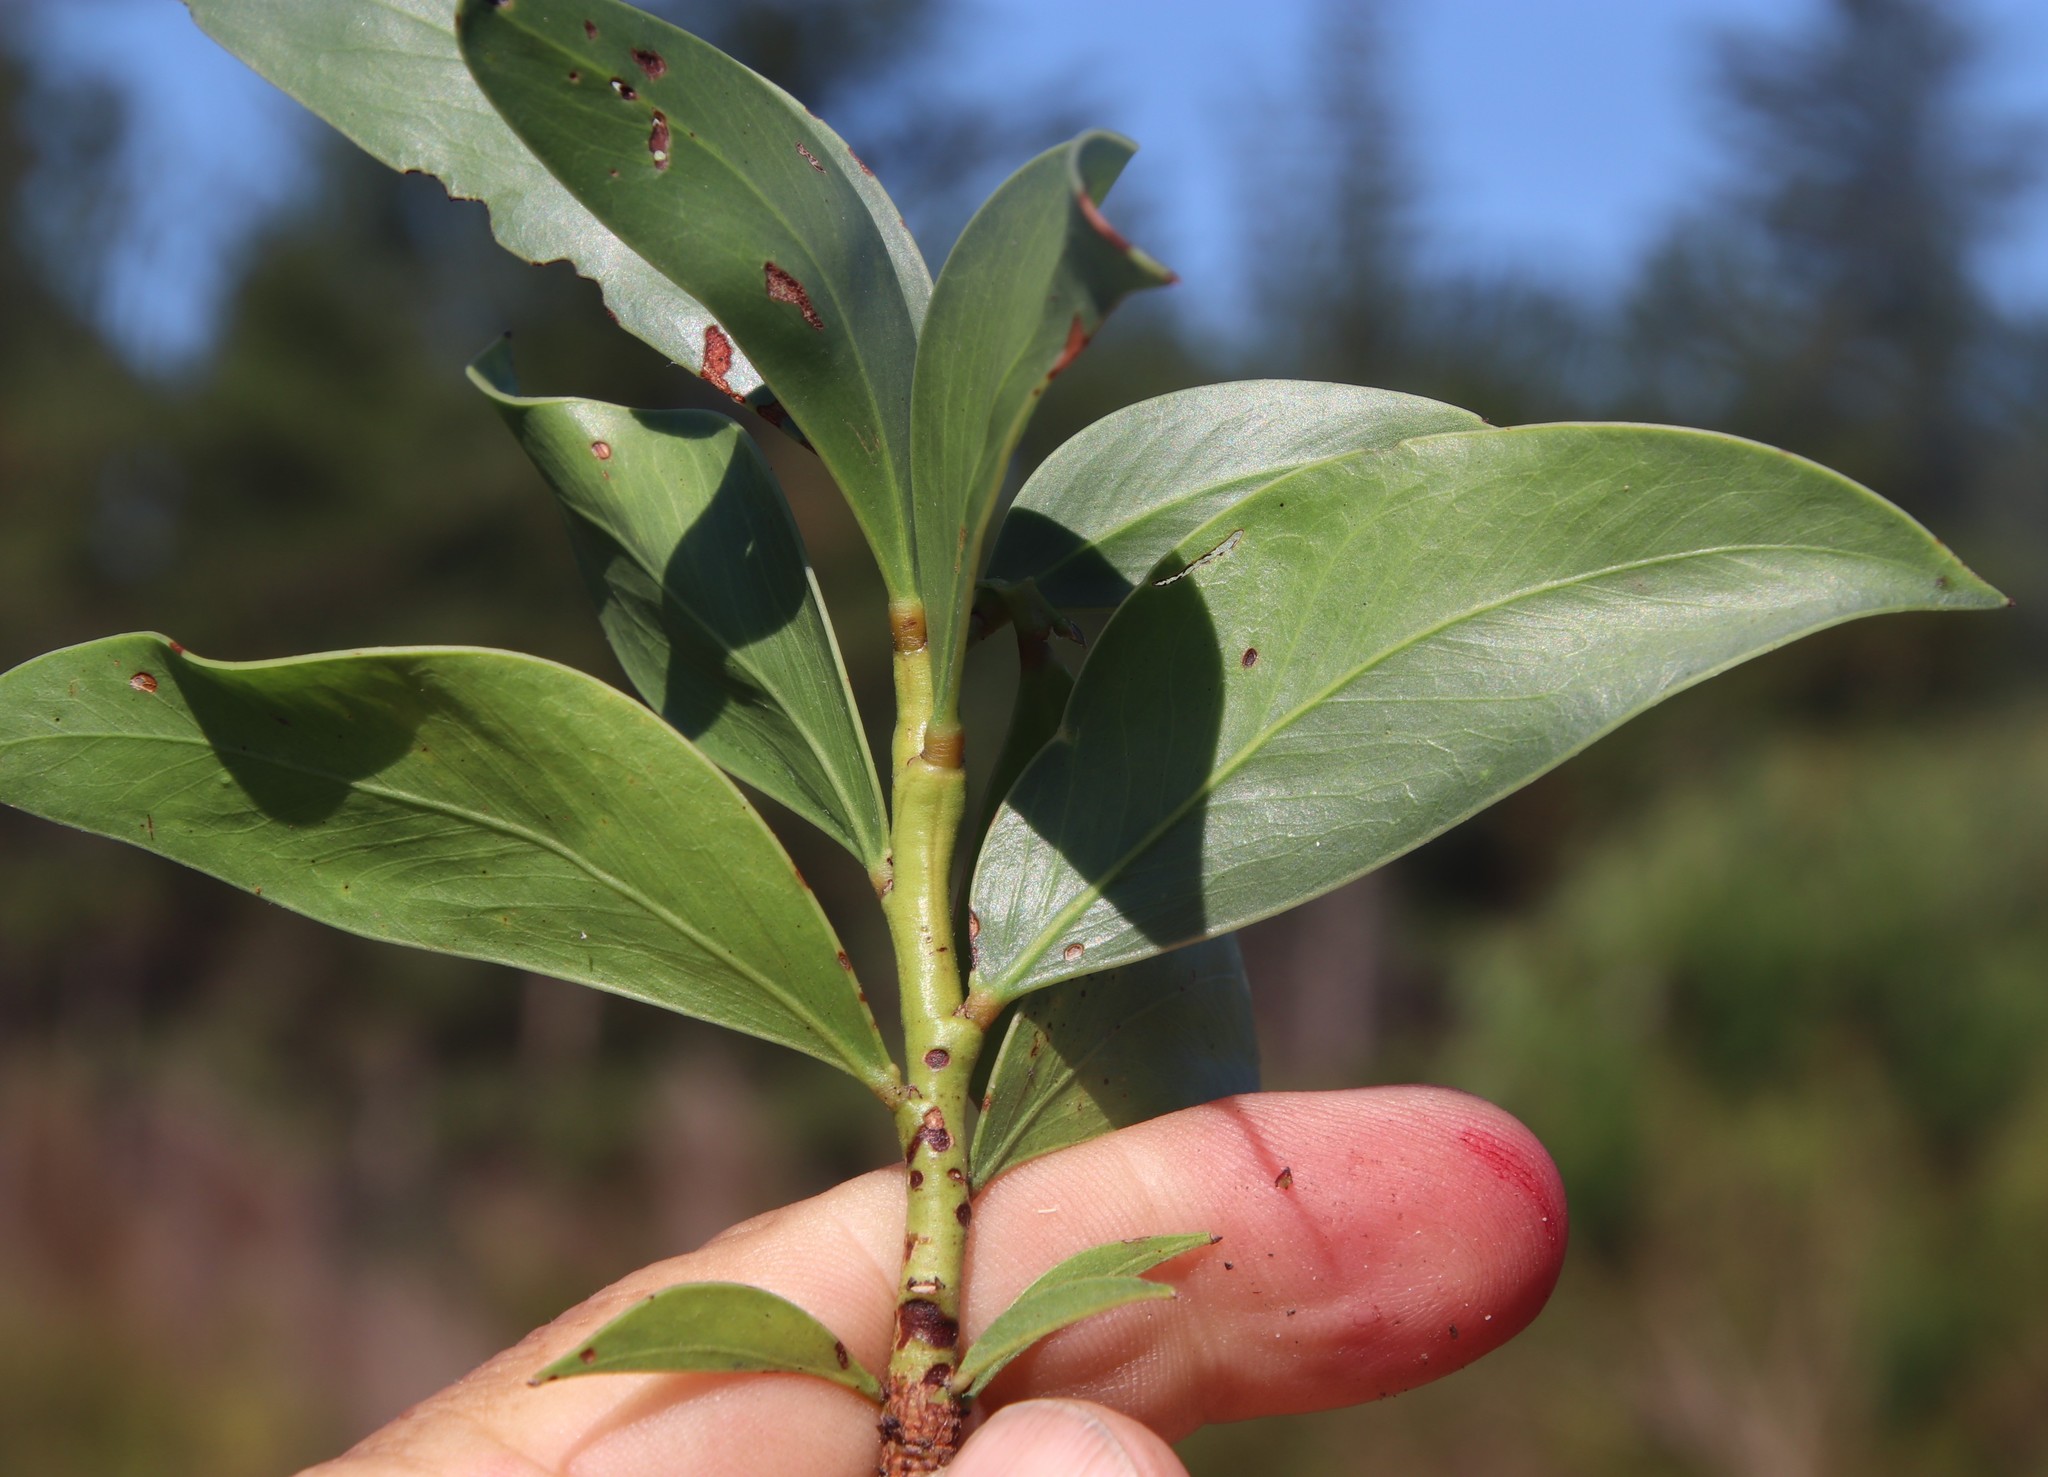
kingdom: Plantae
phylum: Tracheophyta
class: Magnoliopsida
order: Fabales
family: Fabaceae
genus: Acacia
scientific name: Acacia pycnantha
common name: Golden wattle
